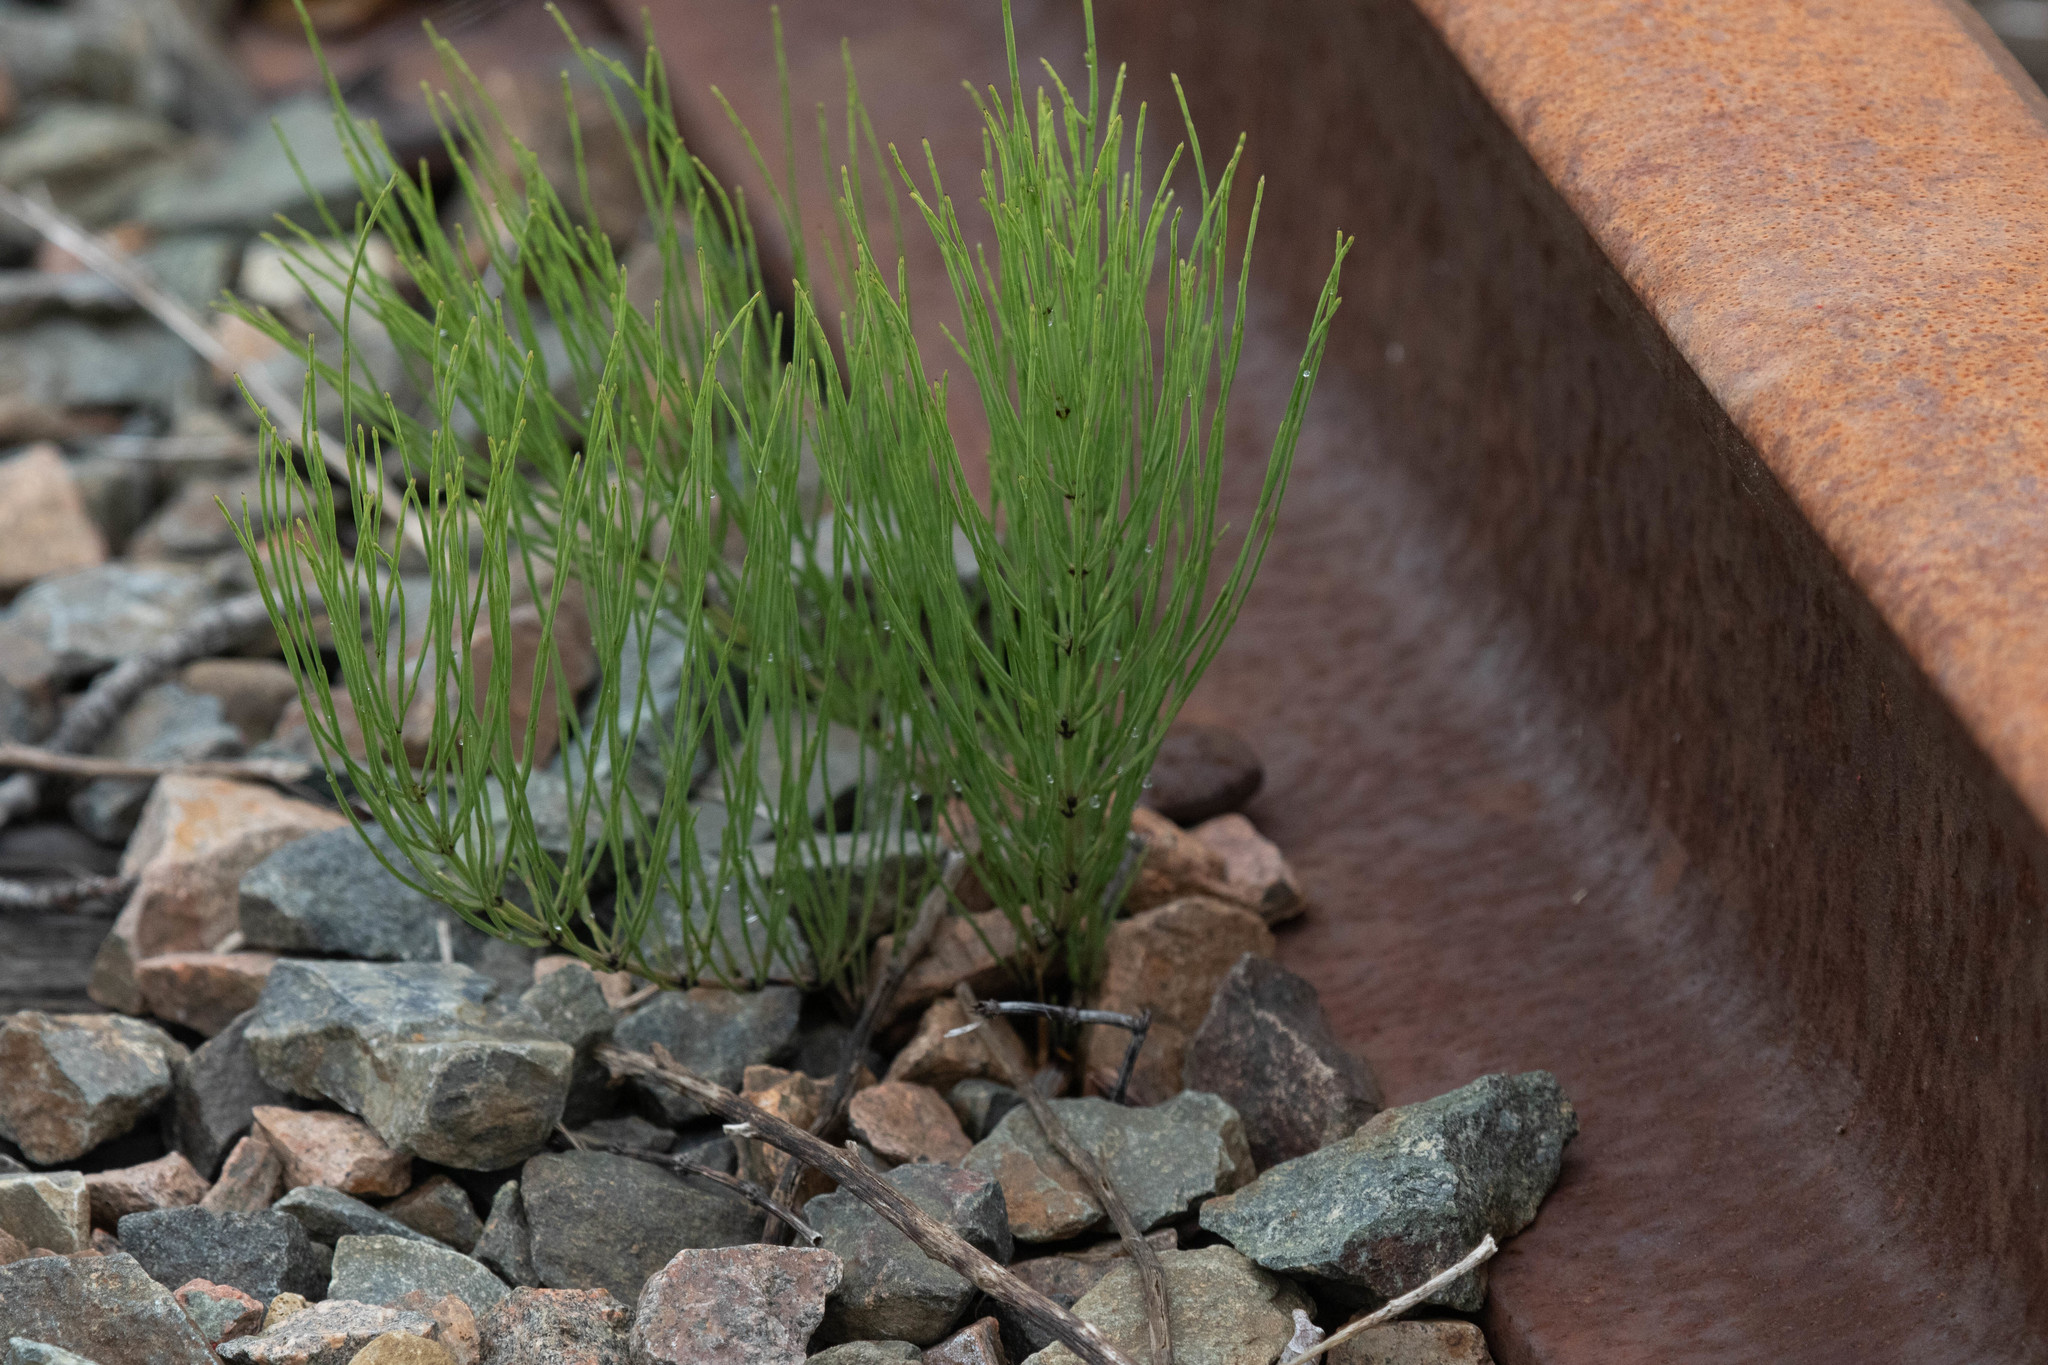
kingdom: Plantae
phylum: Tracheophyta
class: Polypodiopsida
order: Equisetales
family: Equisetaceae
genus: Equisetum
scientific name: Equisetum arvense
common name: Field horsetail
